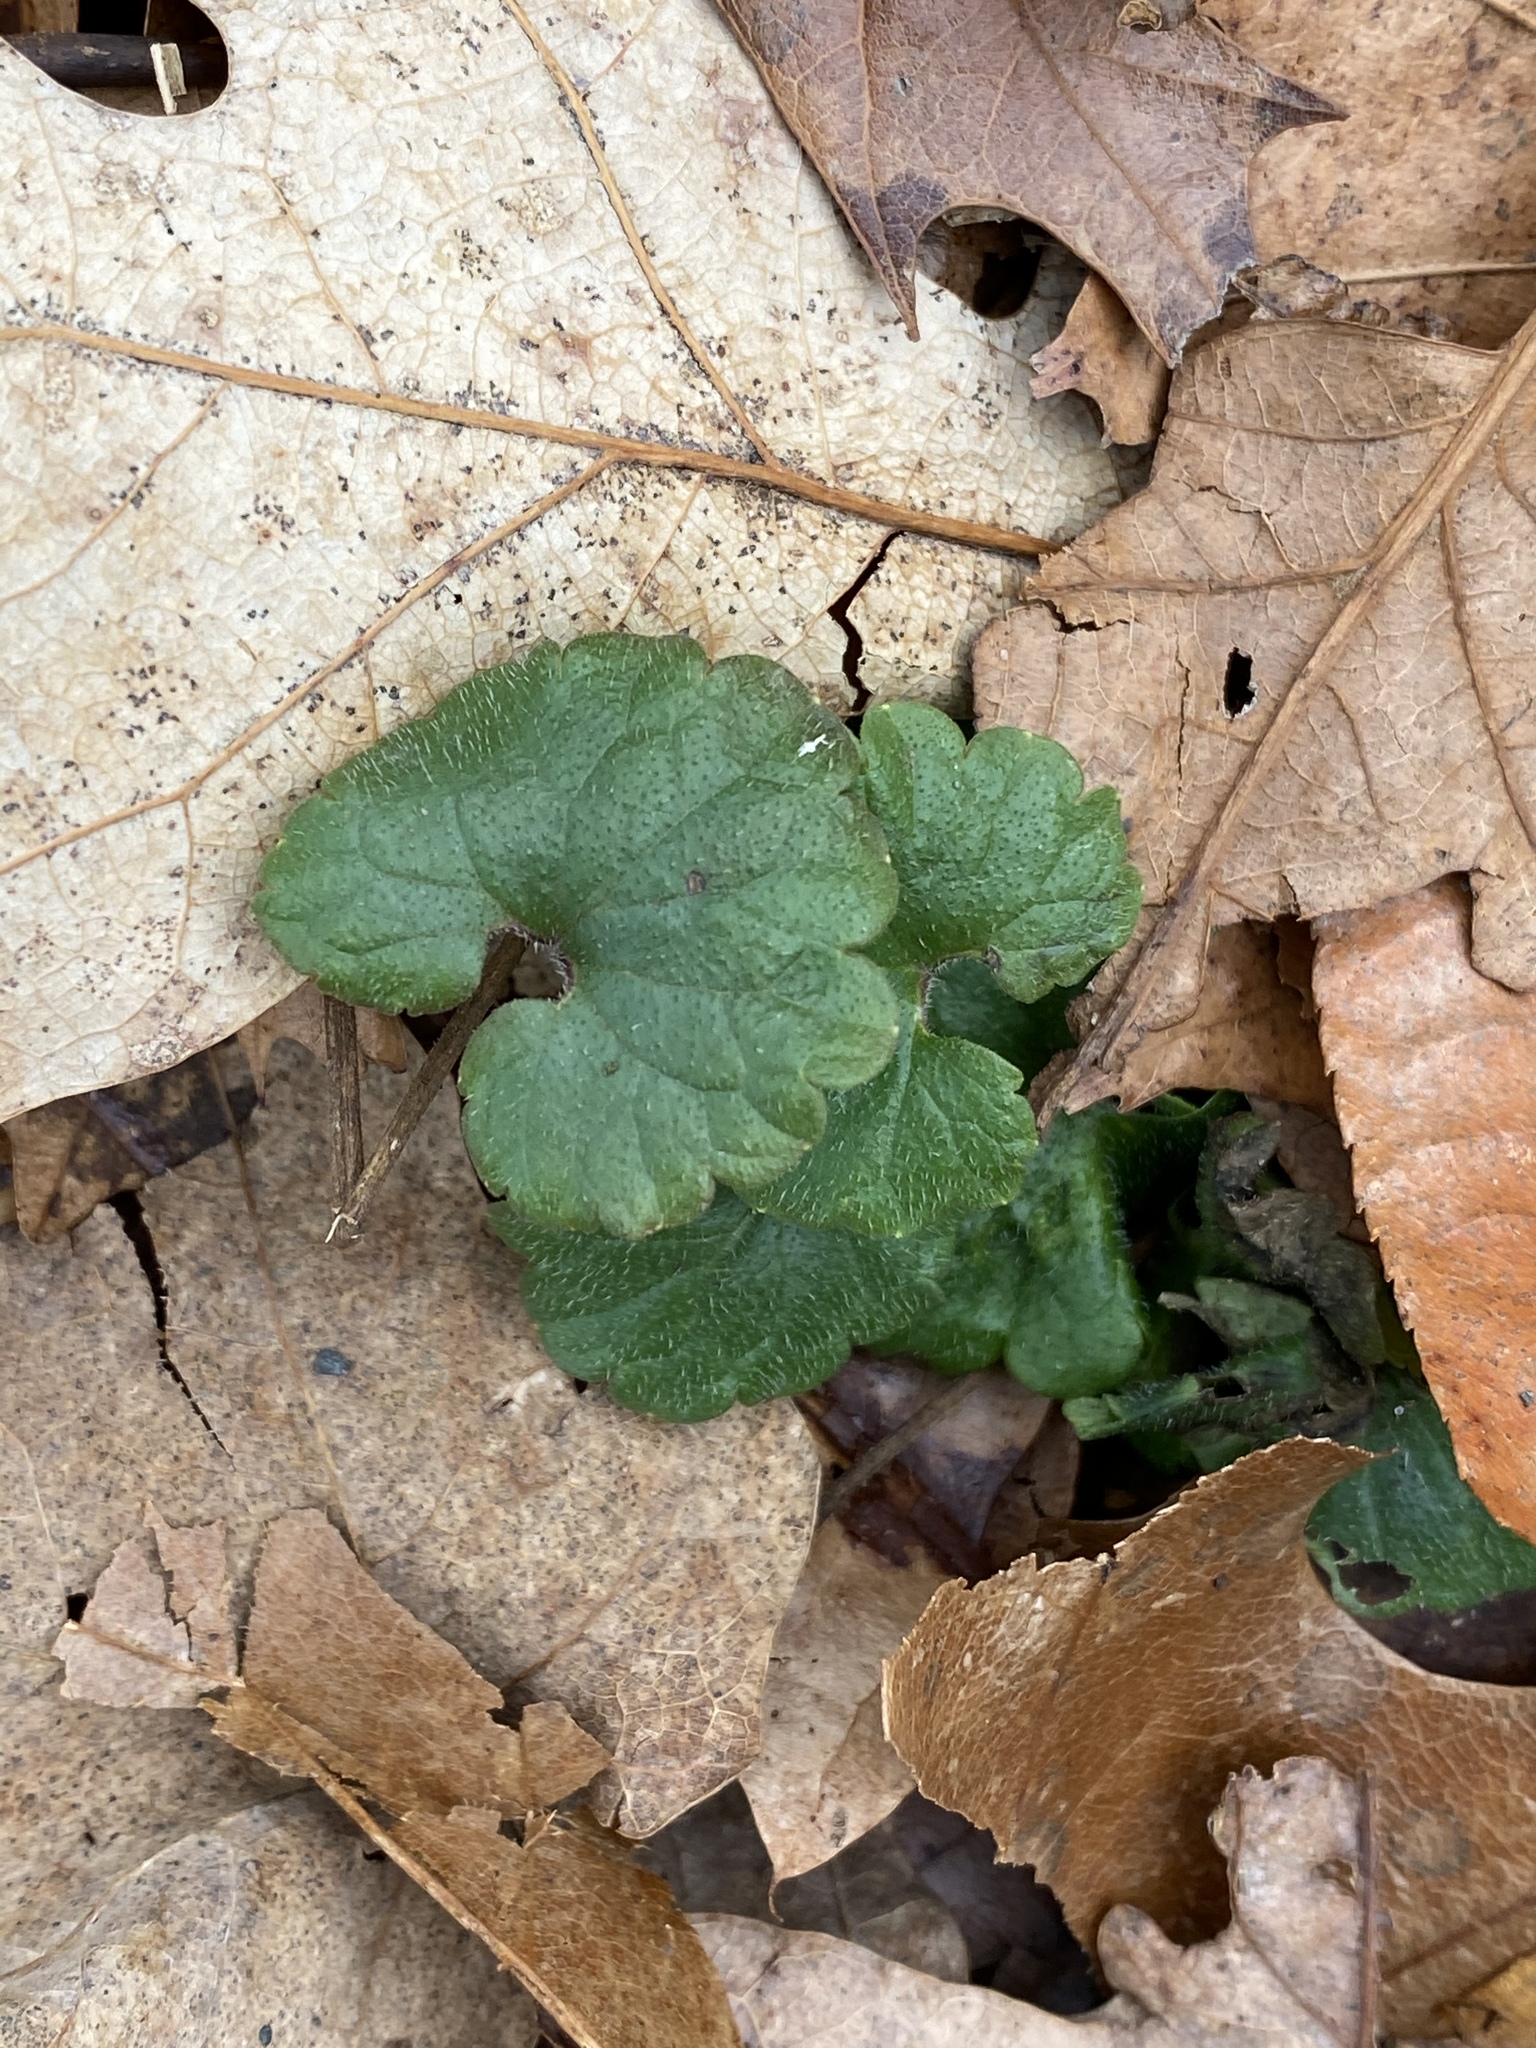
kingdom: Plantae
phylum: Tracheophyta
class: Magnoliopsida
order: Lamiales
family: Lamiaceae
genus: Glechoma
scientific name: Glechoma hederacea
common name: Ground ivy
